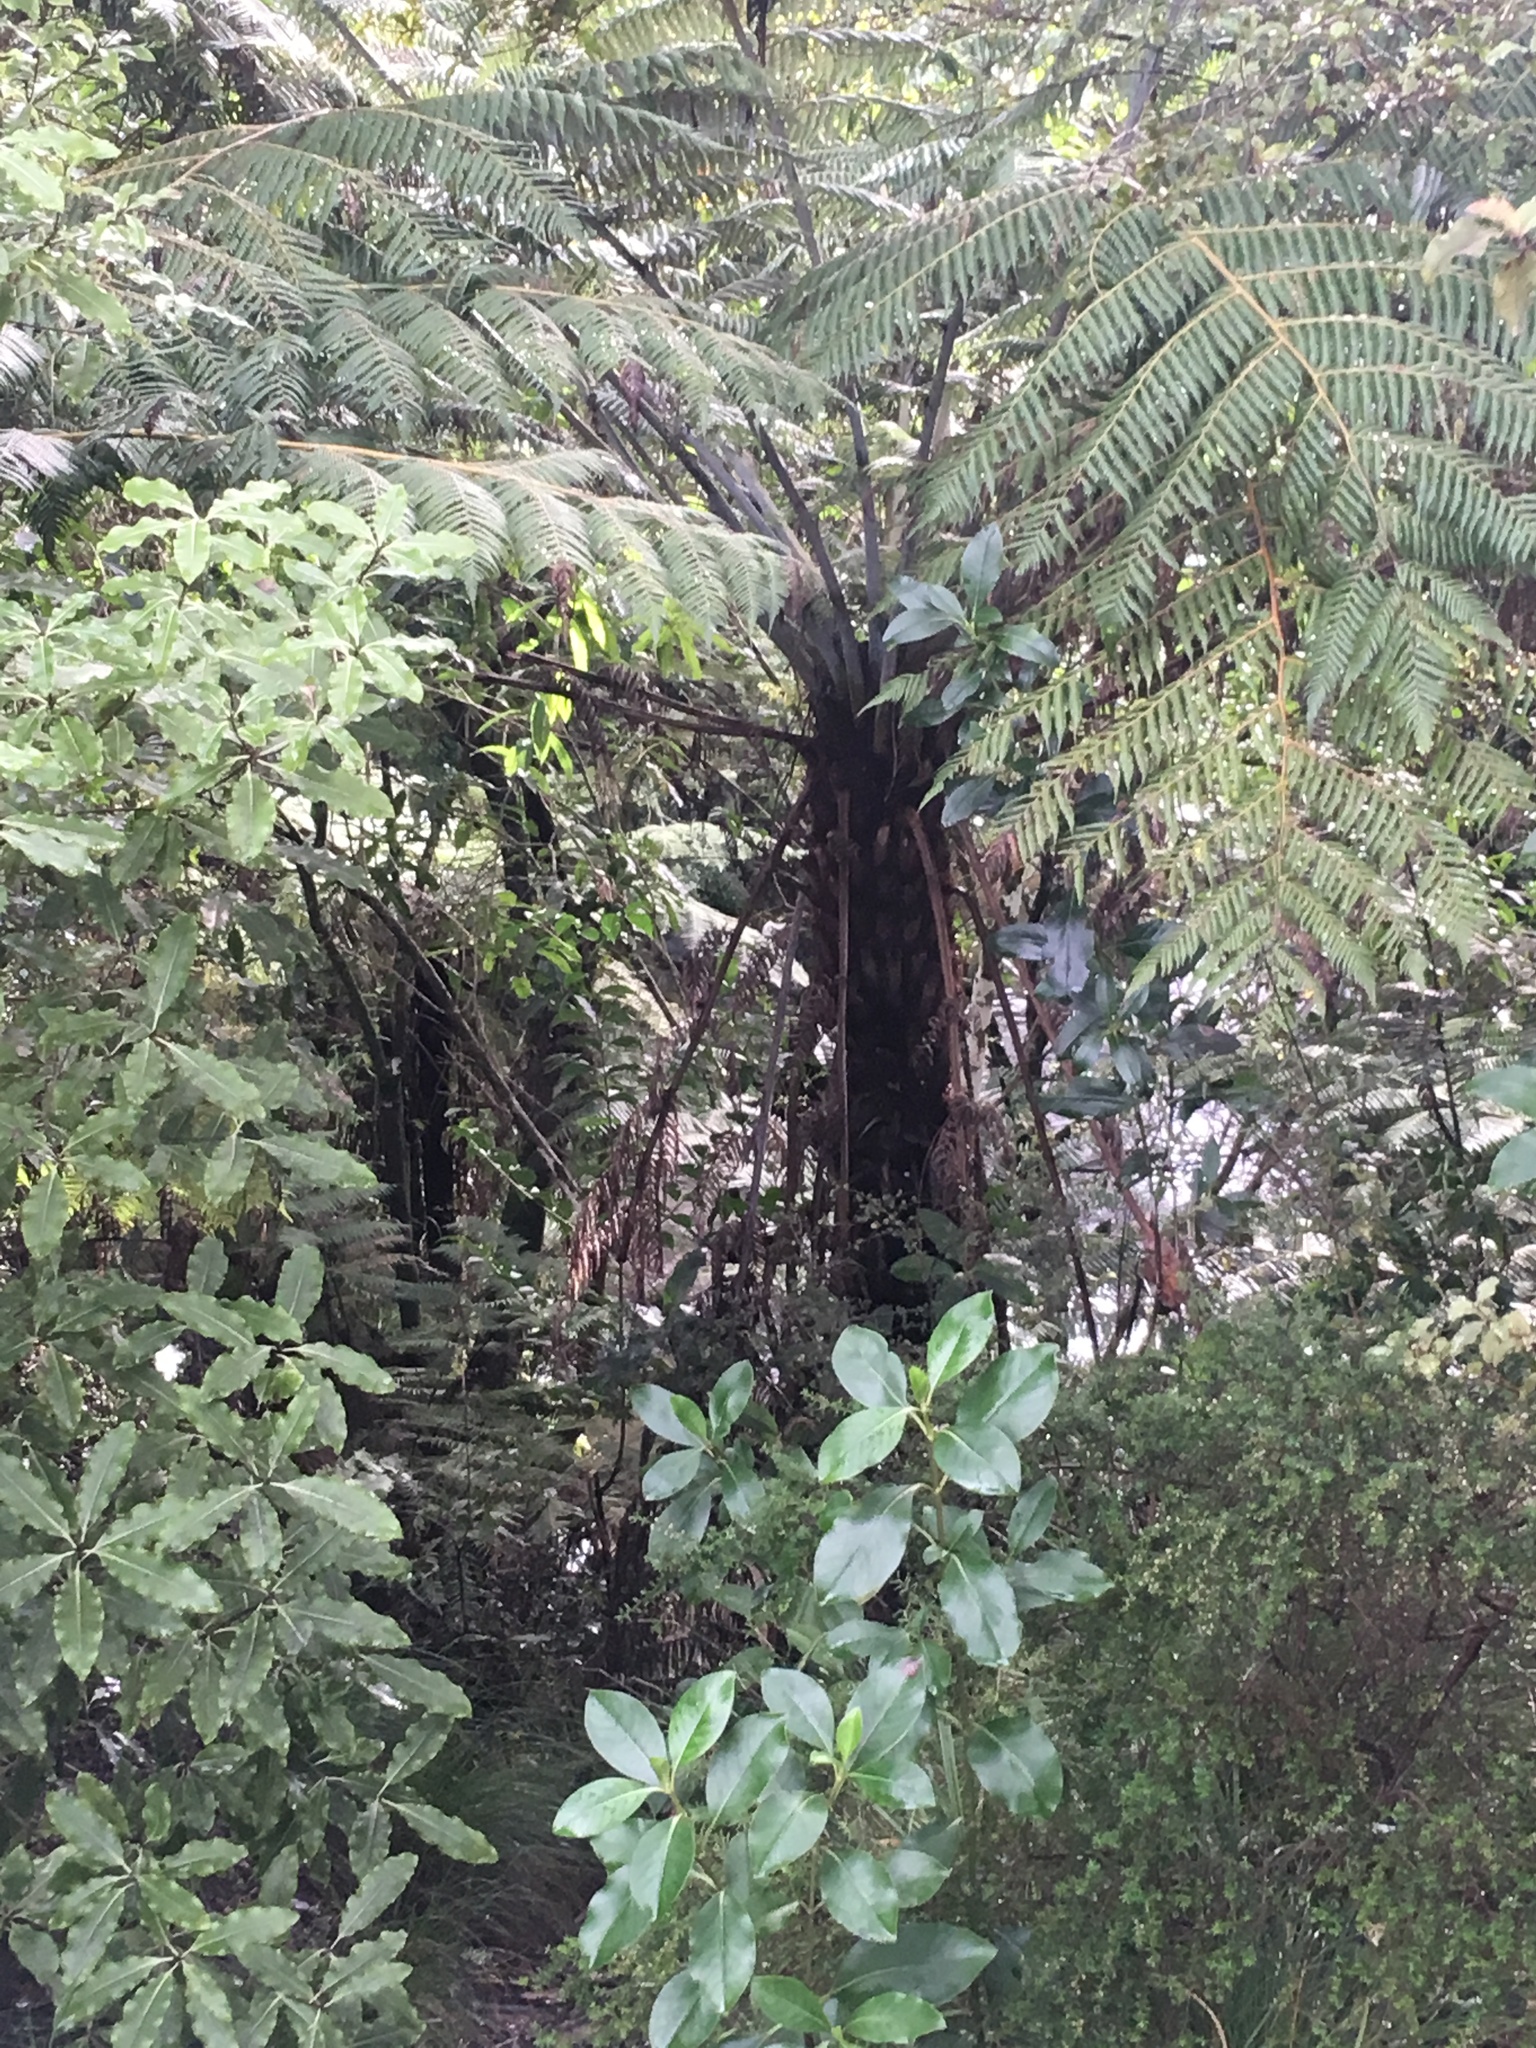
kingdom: Plantae
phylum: Tracheophyta
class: Polypodiopsida
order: Cyatheales
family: Cyatheaceae
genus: Alsophila
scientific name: Alsophila dealbata
